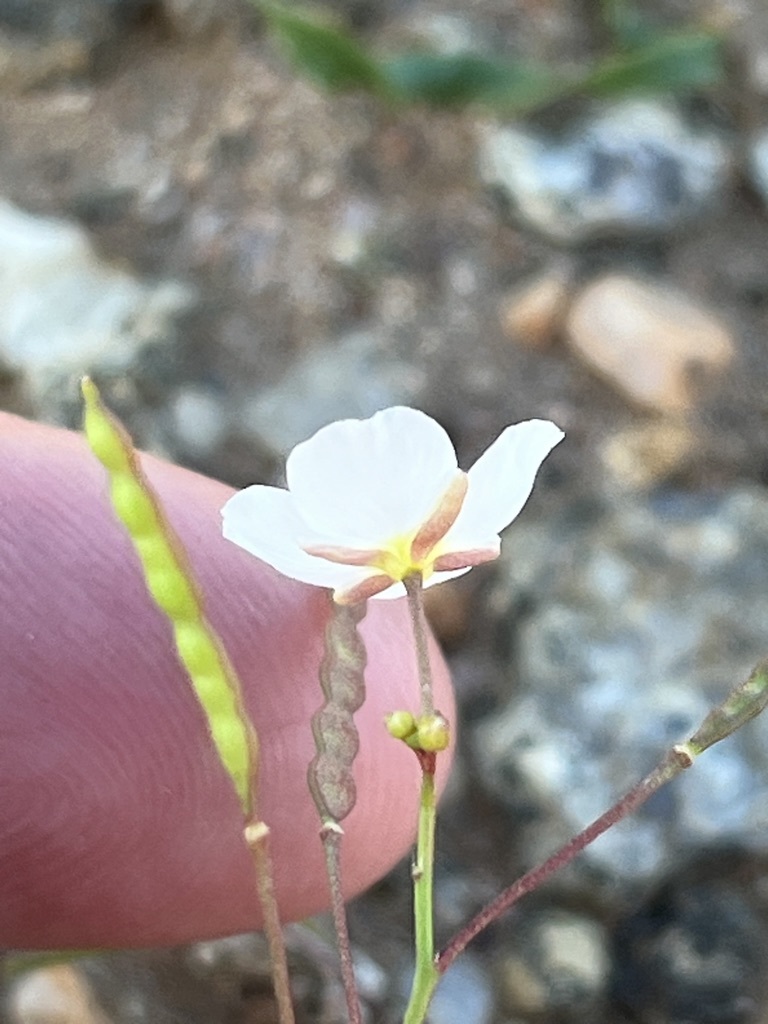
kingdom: Plantae
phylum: Tracheophyta
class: Magnoliopsida
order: Brassicales
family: Brassicaceae
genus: Heliophila
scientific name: Heliophila variabilis
